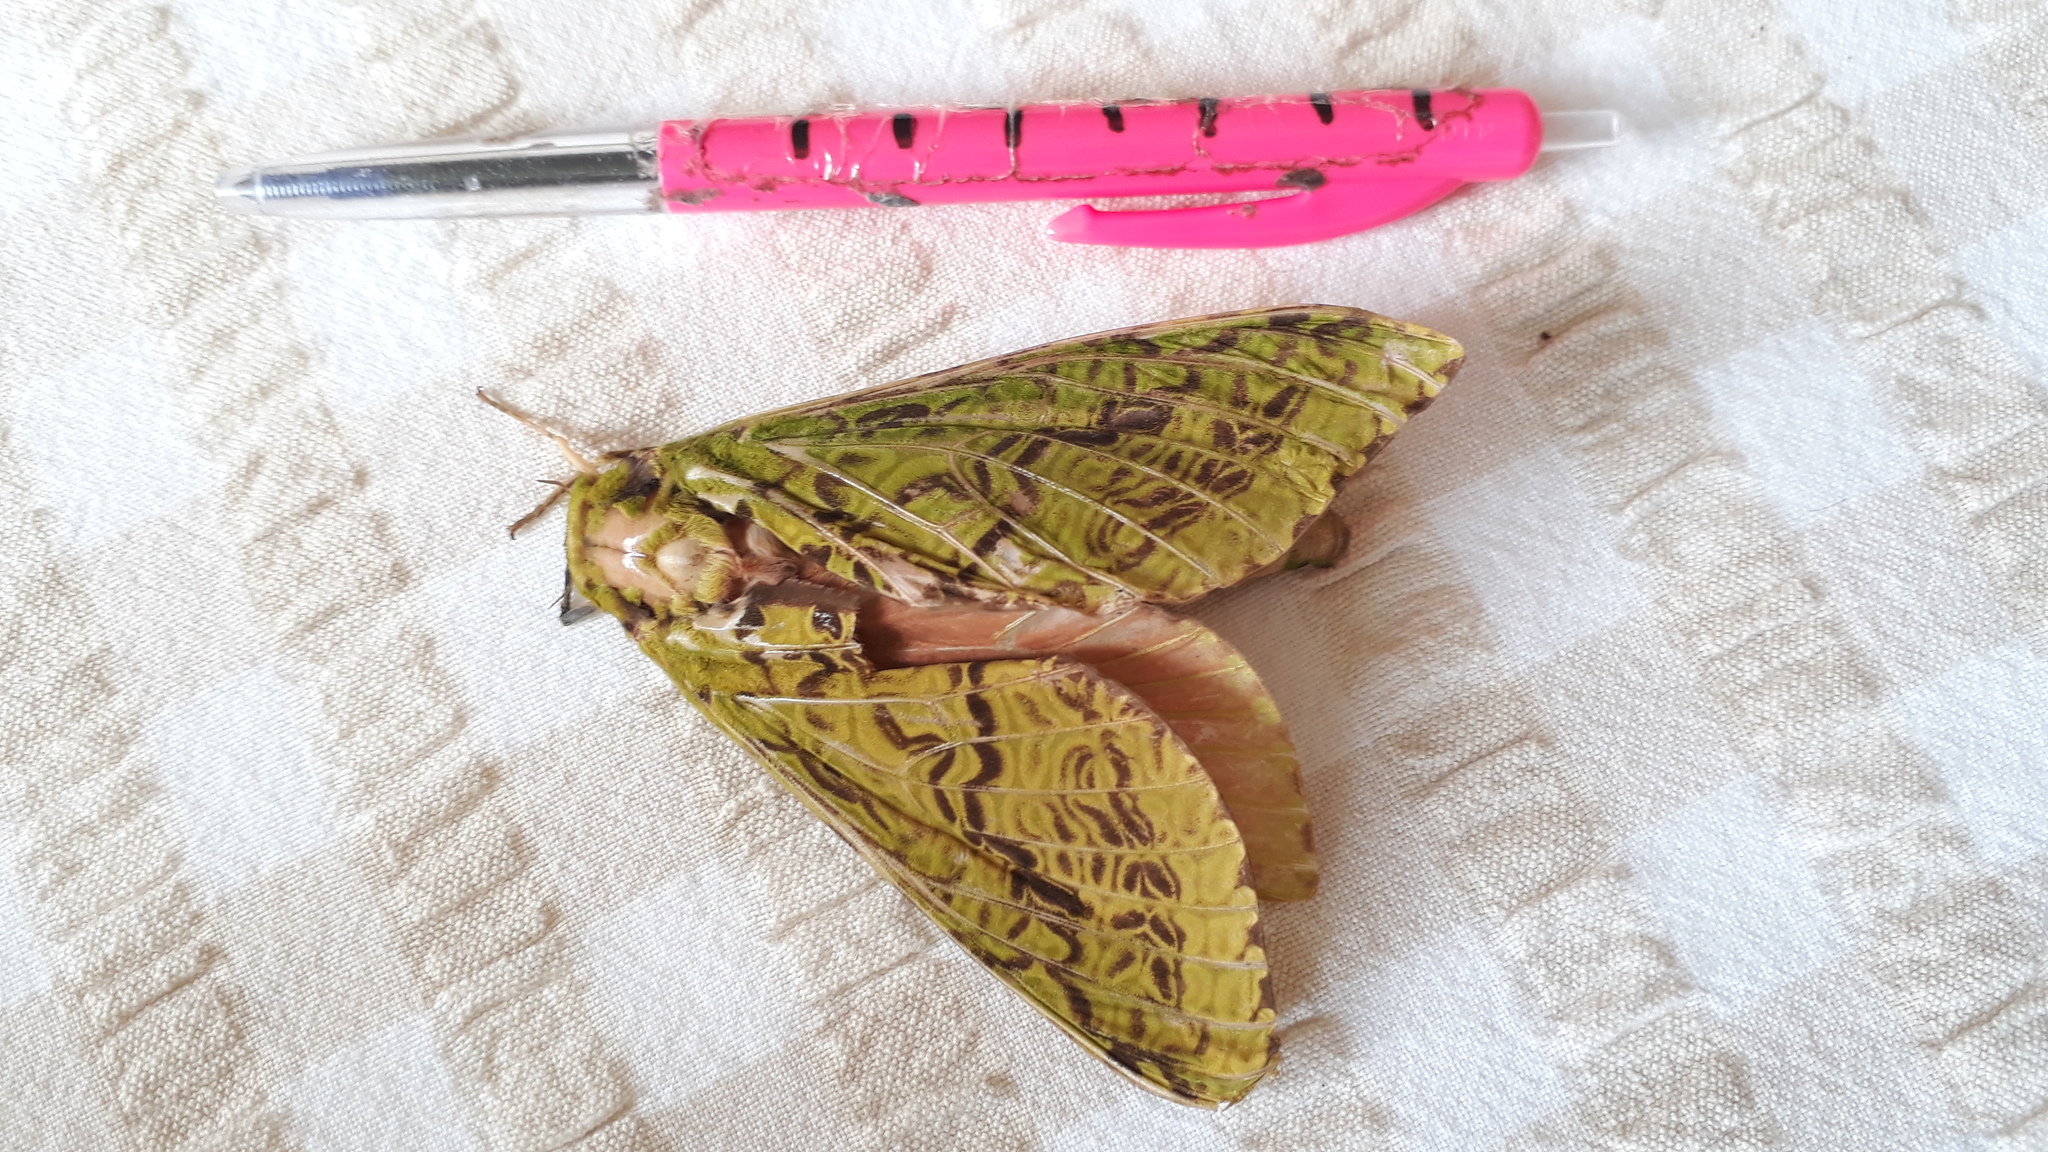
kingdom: Animalia
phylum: Arthropoda
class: Insecta
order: Lepidoptera
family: Hepialidae
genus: Aenetus
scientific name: Aenetus virescens
